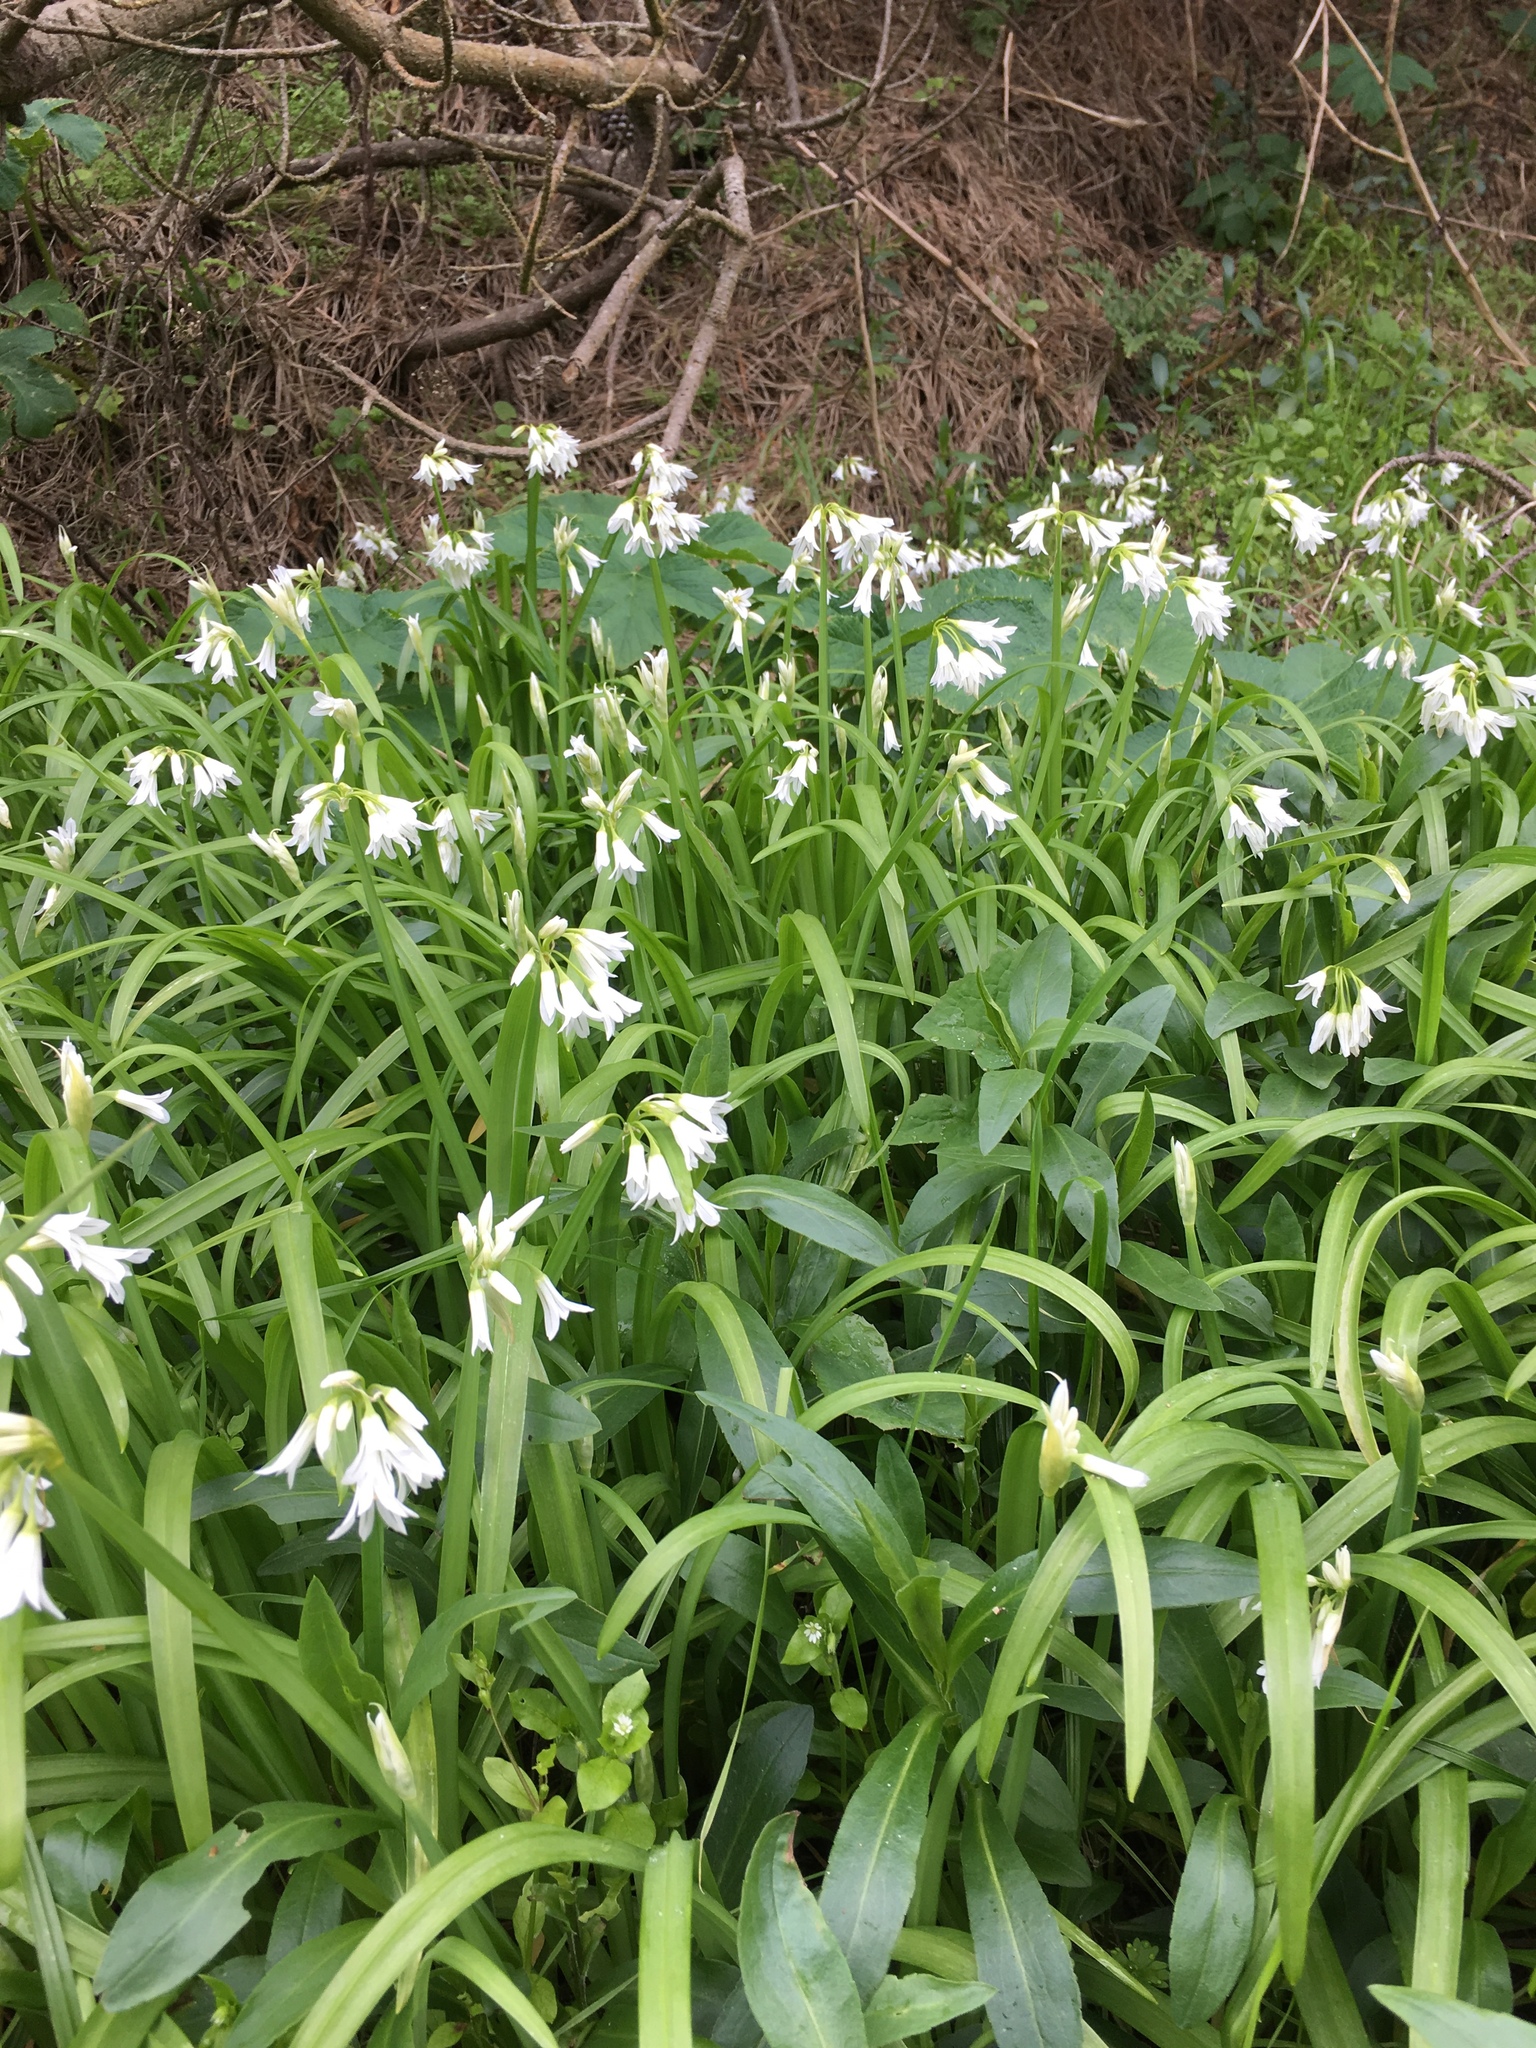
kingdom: Plantae
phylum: Tracheophyta
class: Liliopsida
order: Asparagales
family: Amaryllidaceae
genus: Allium
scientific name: Allium triquetrum
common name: Three-cornered garlic
